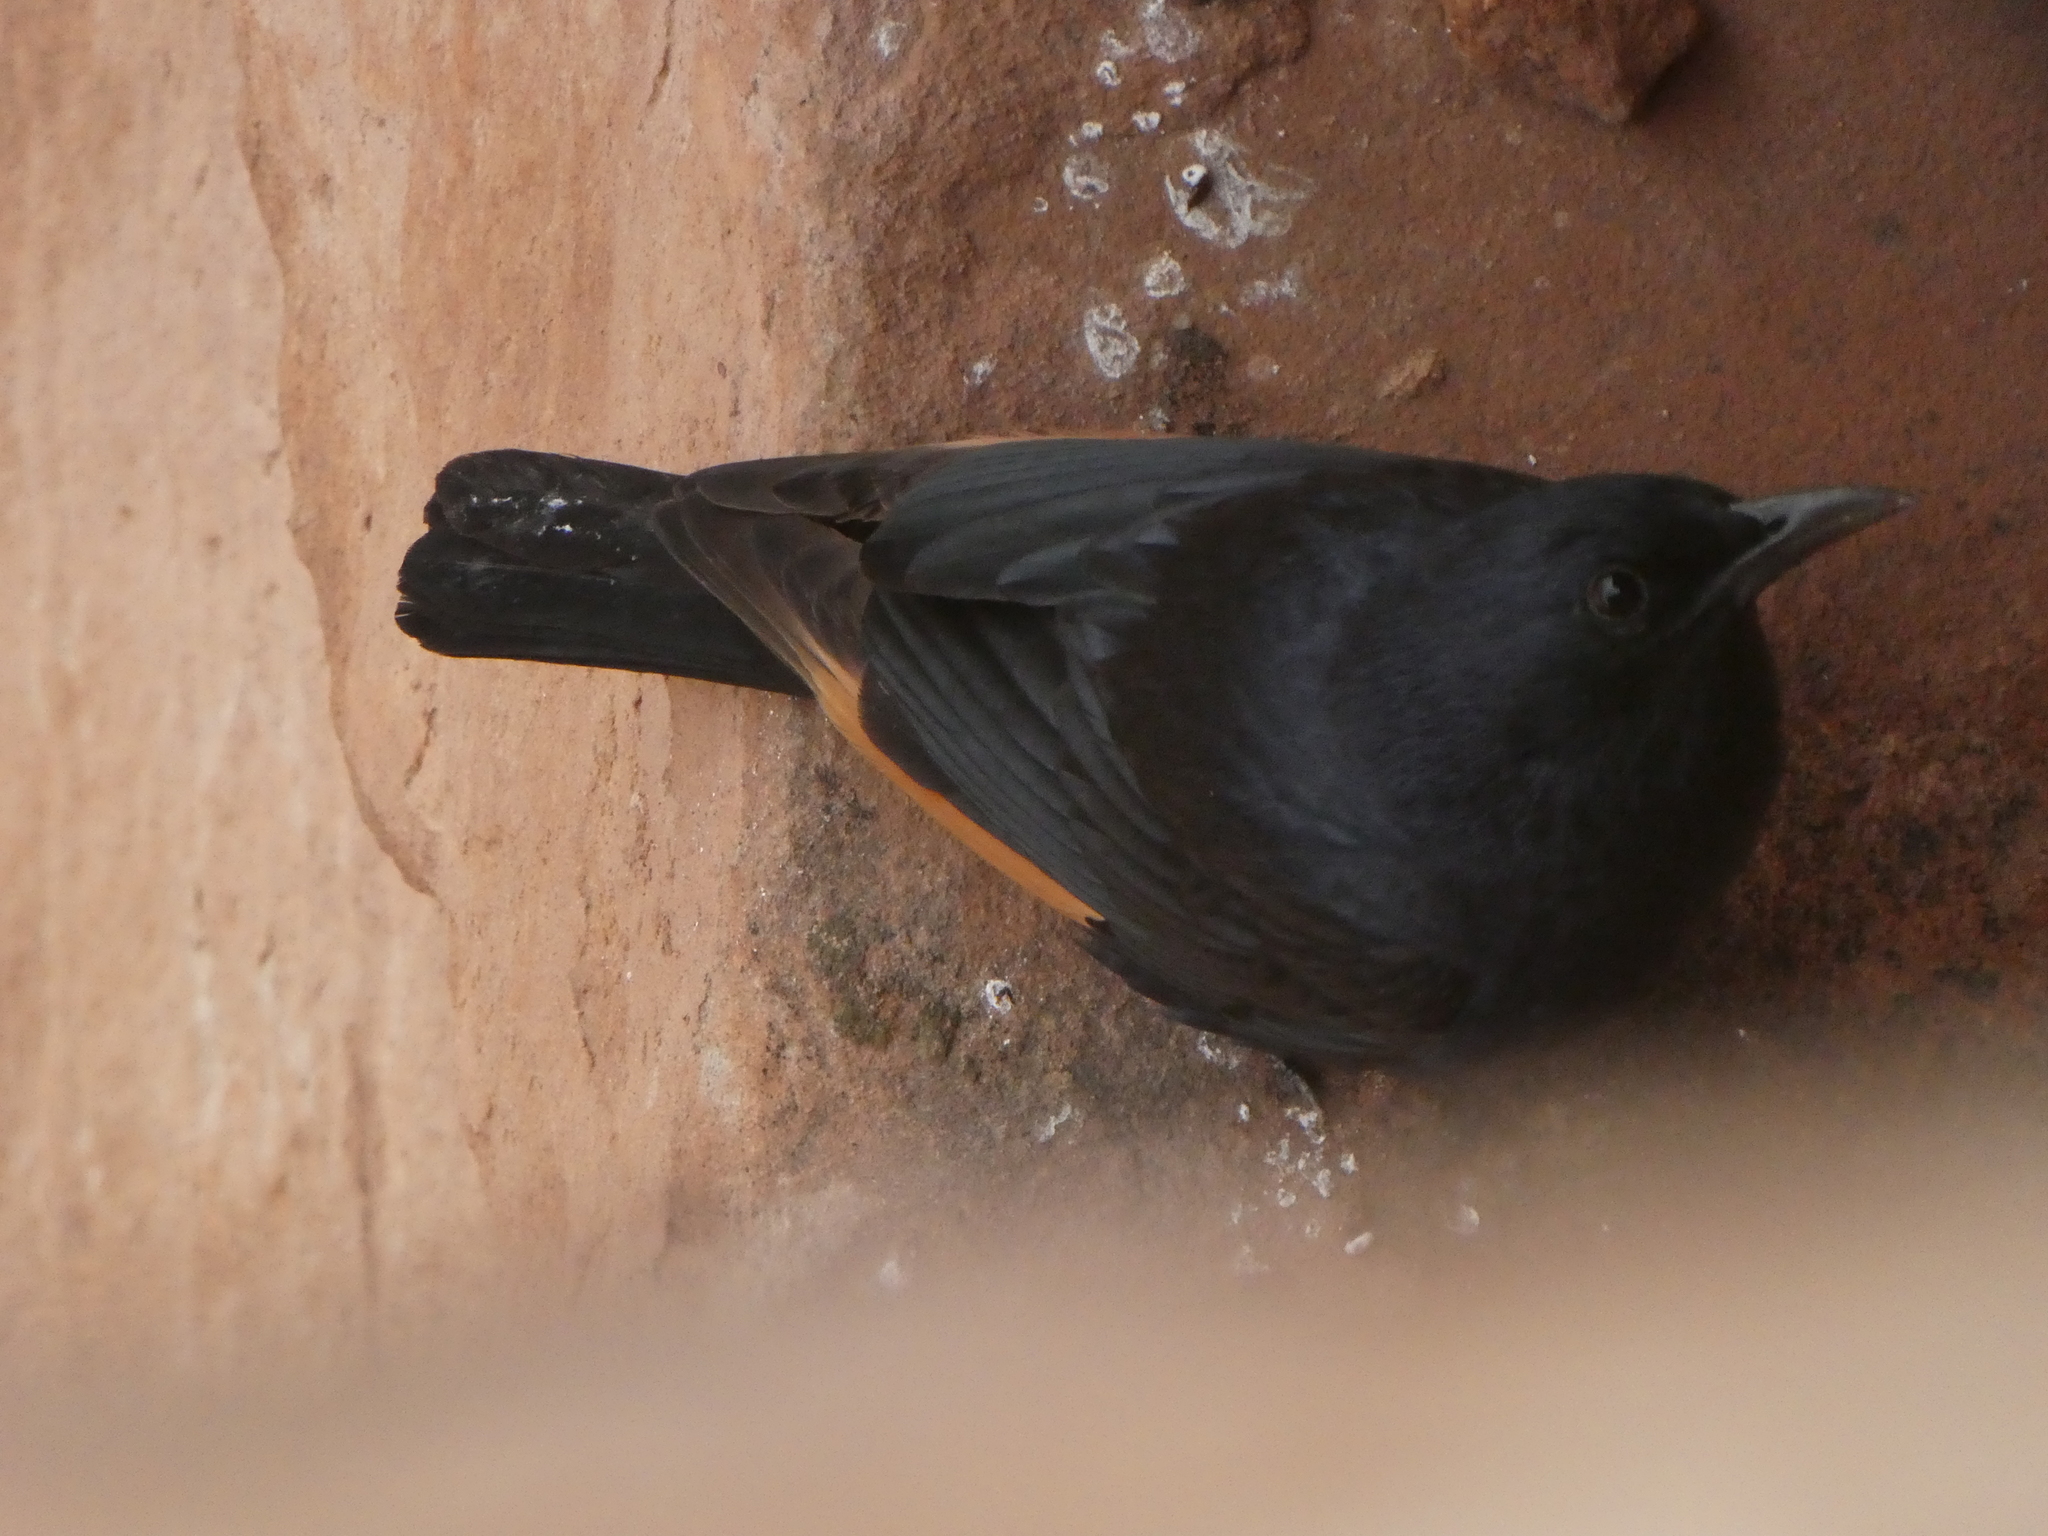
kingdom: Animalia
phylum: Chordata
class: Aves
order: Passeriformes
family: Sturnidae
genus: Onychognathus
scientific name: Onychognathus tristramii
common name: Tristram's starling
